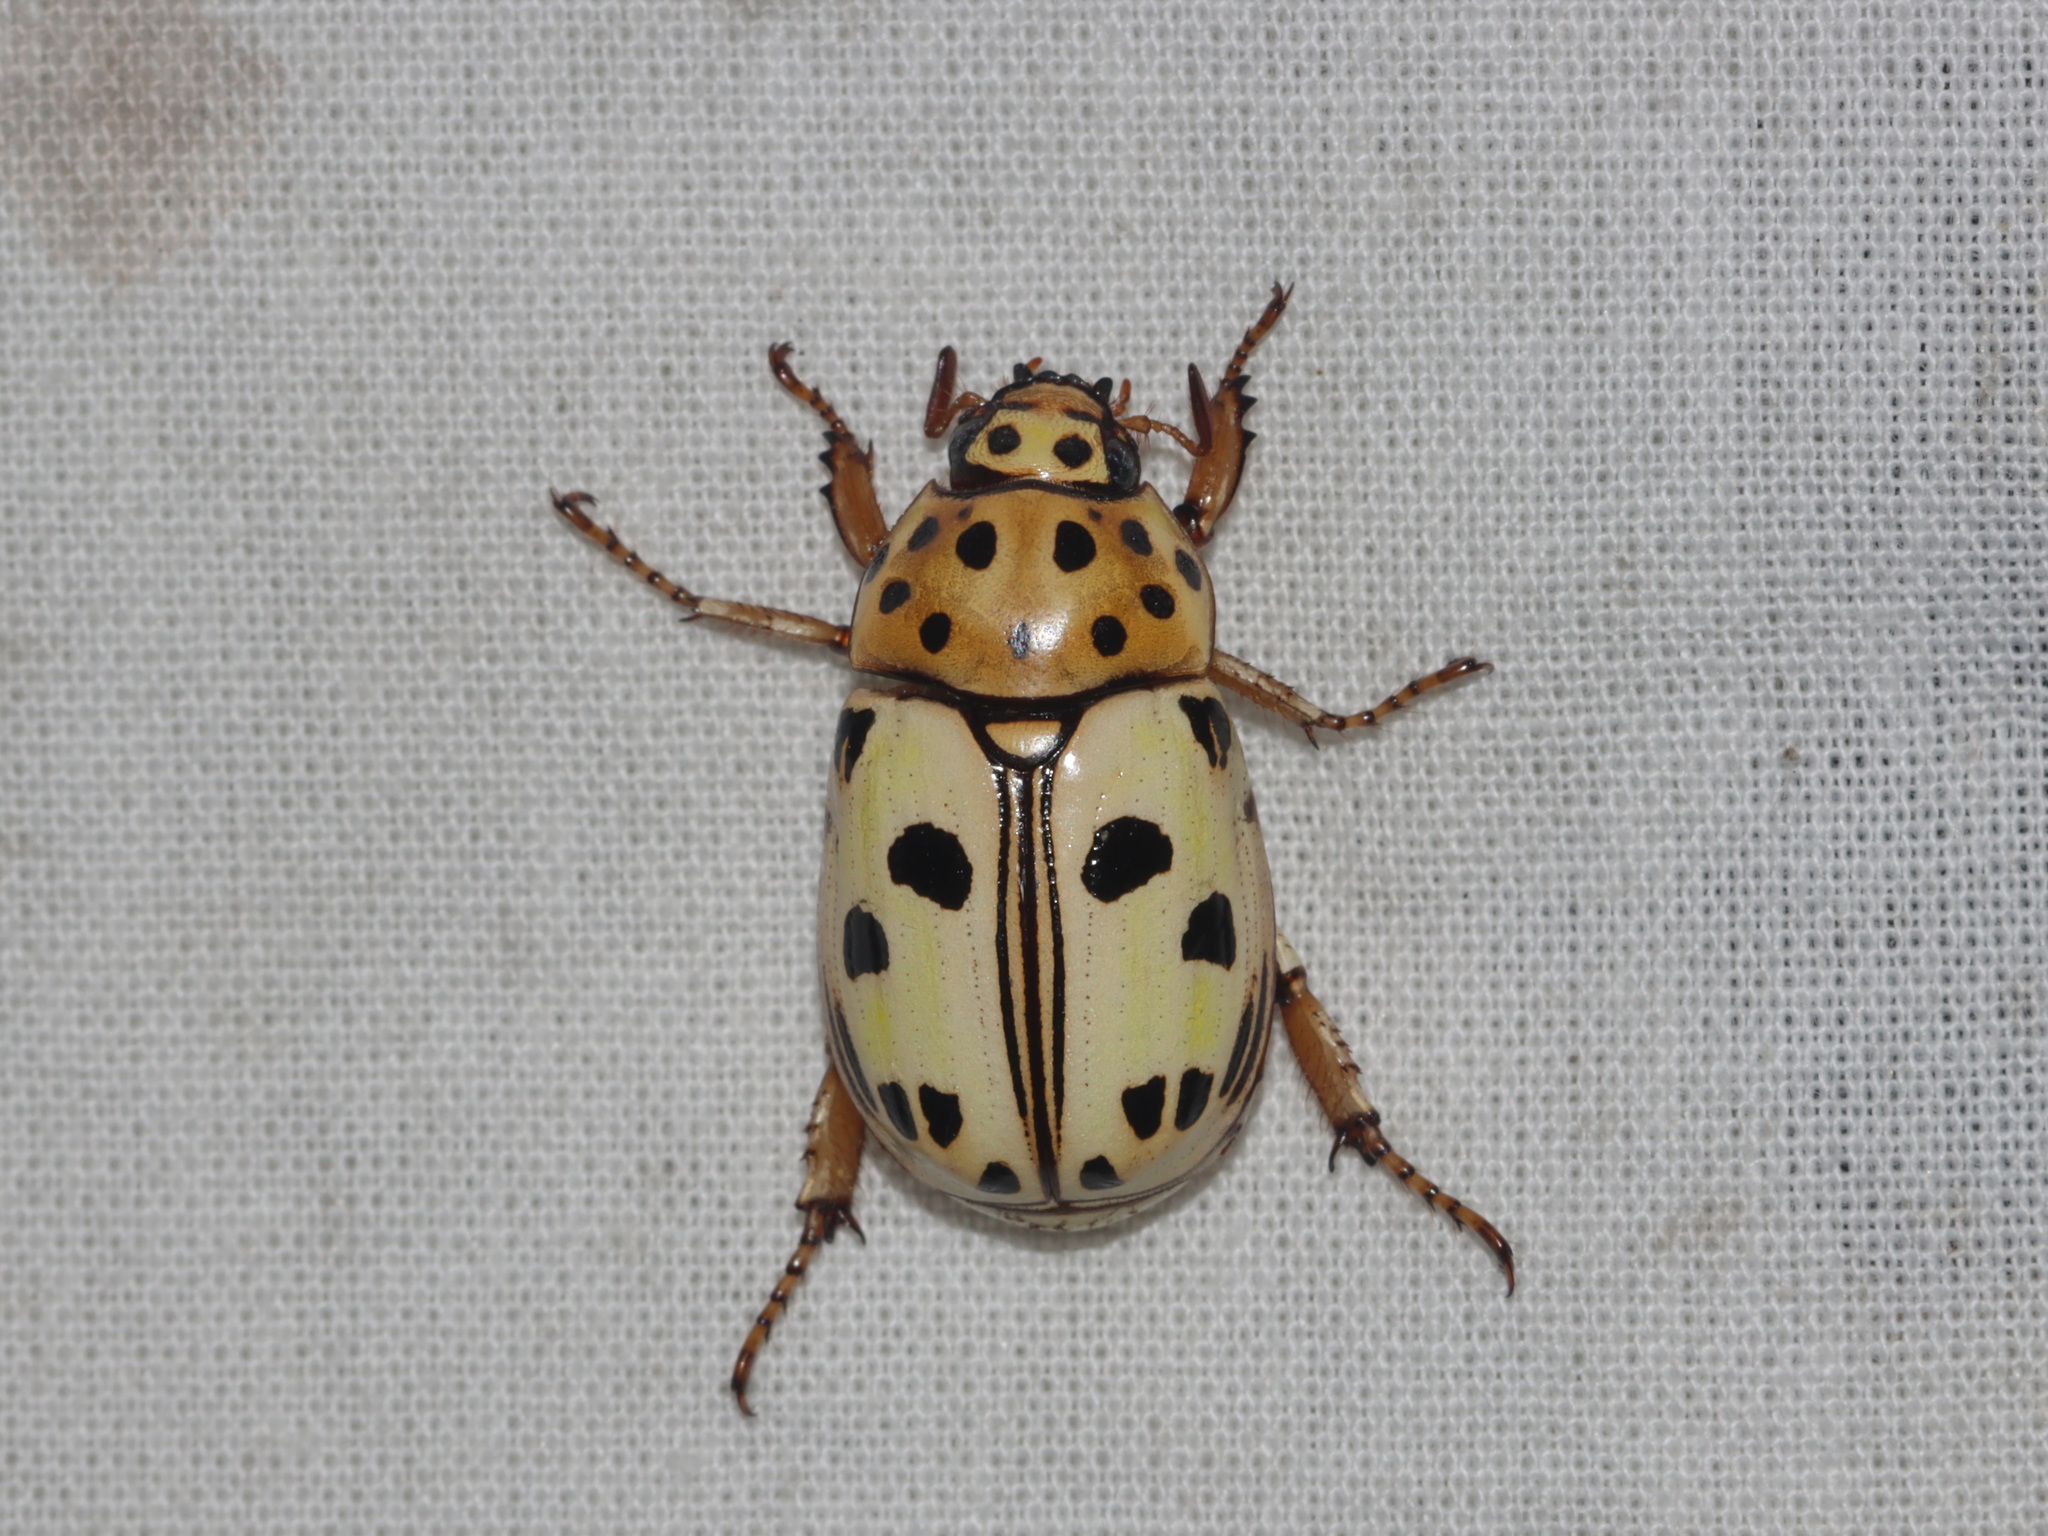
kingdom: Animalia
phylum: Arthropoda
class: Insecta
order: Coleoptera
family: Scarabaeidae
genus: Lutera
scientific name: Lutera nigromaculata
